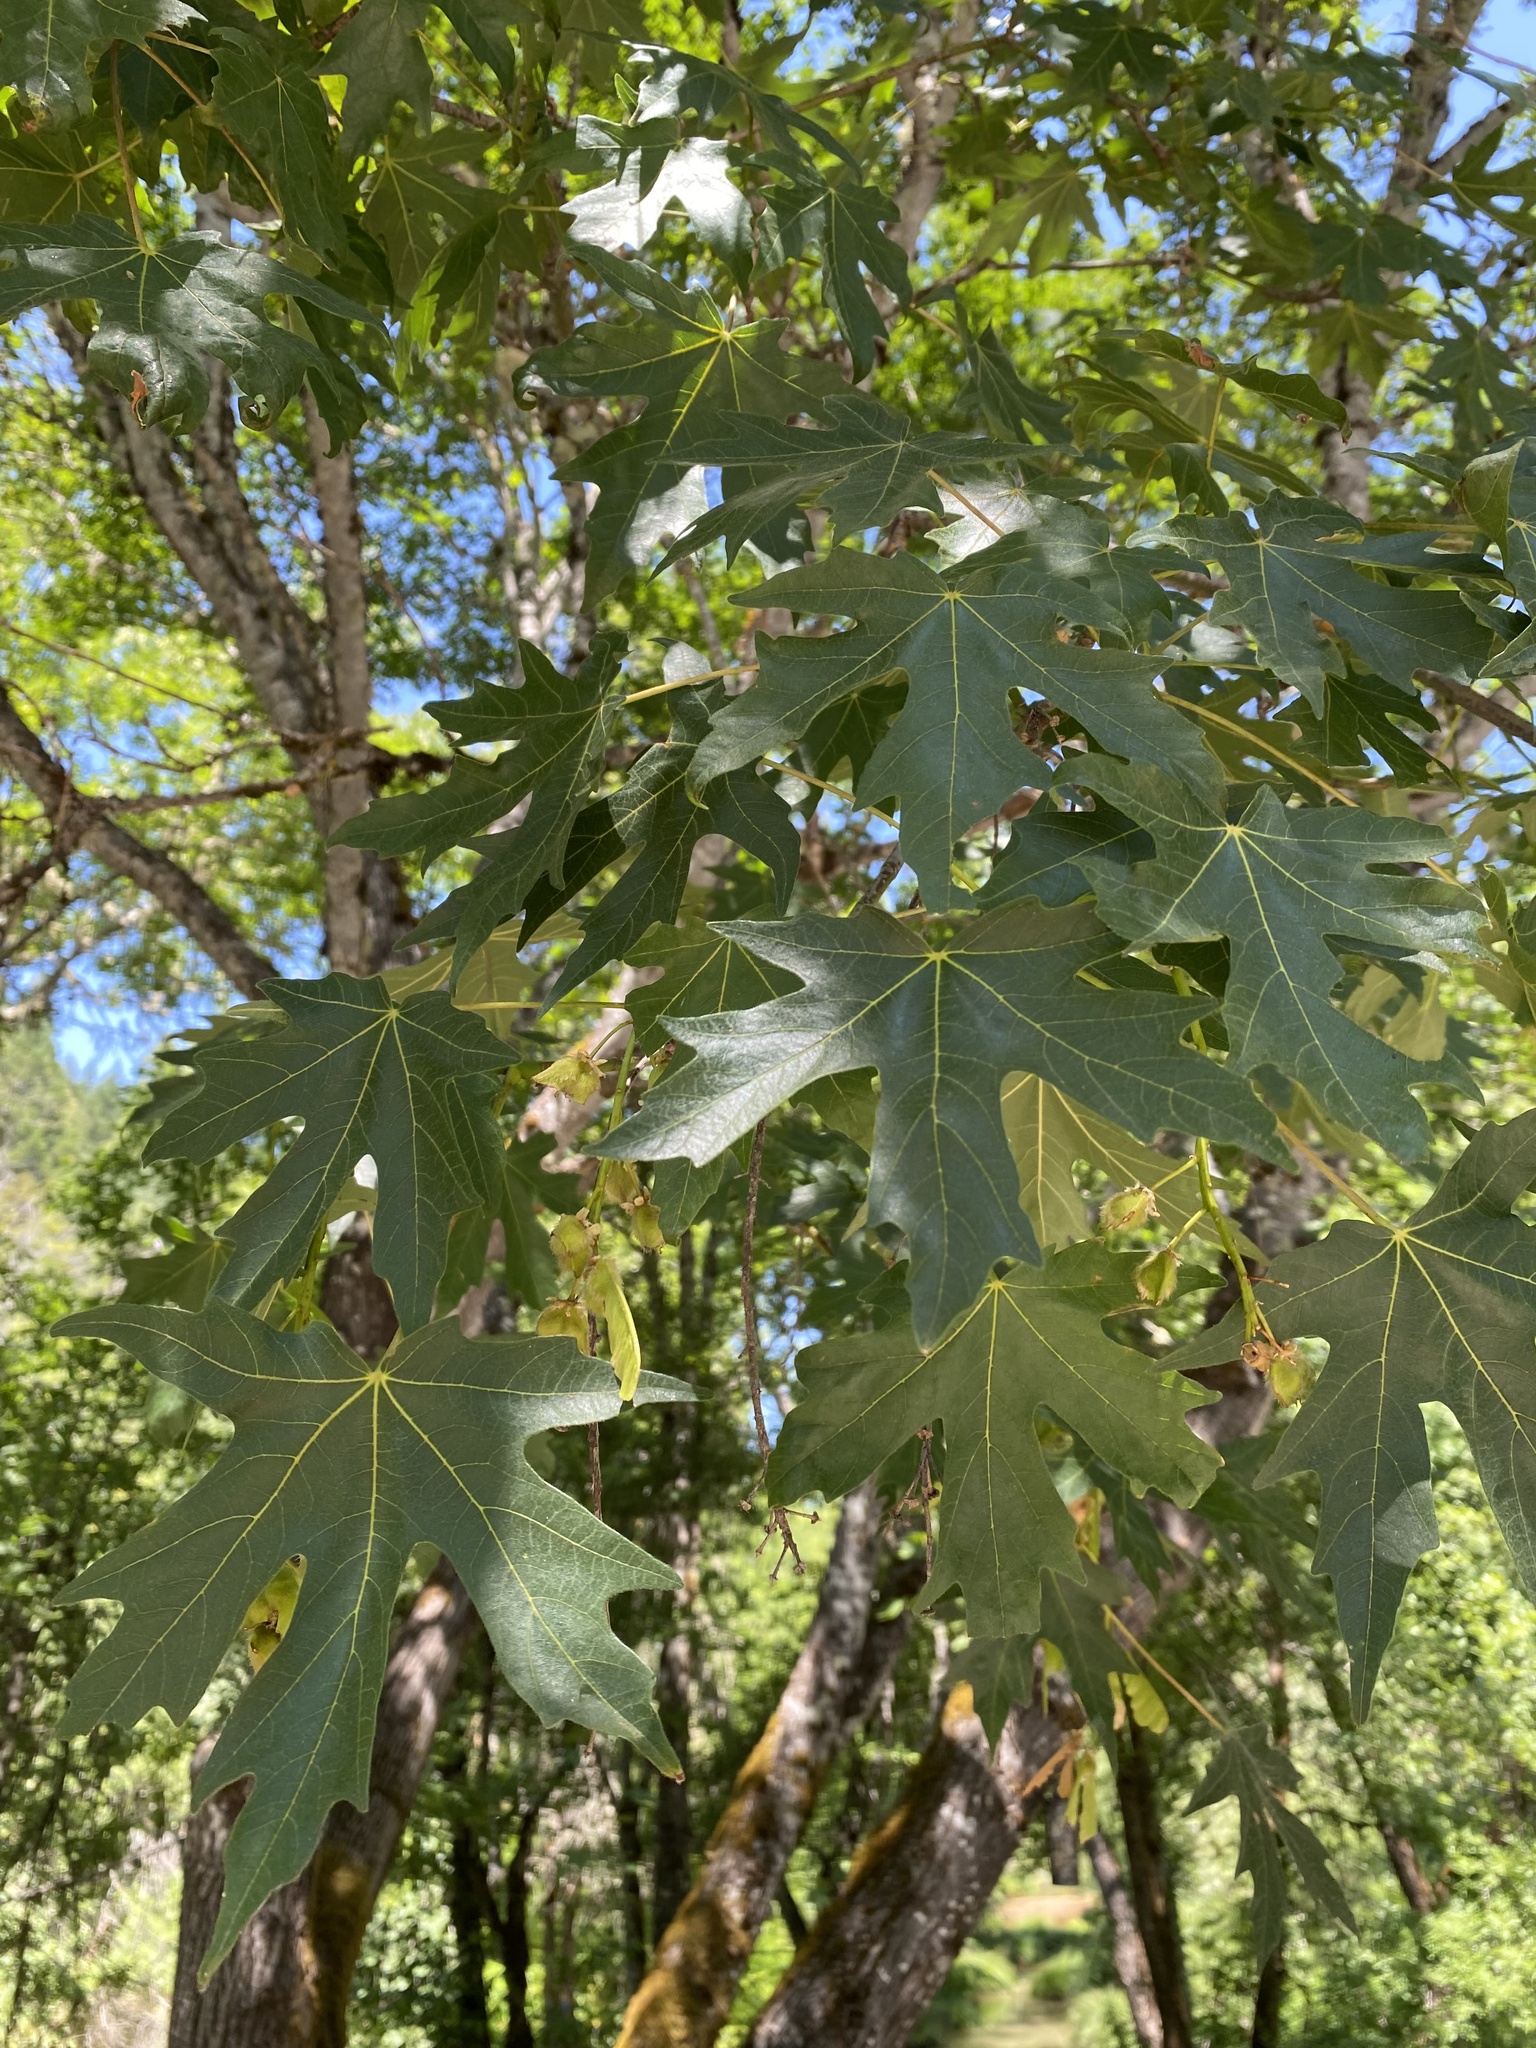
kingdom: Plantae
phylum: Tracheophyta
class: Magnoliopsida
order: Sapindales
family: Sapindaceae
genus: Acer
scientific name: Acer macrophyllum
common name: Oregon maple
